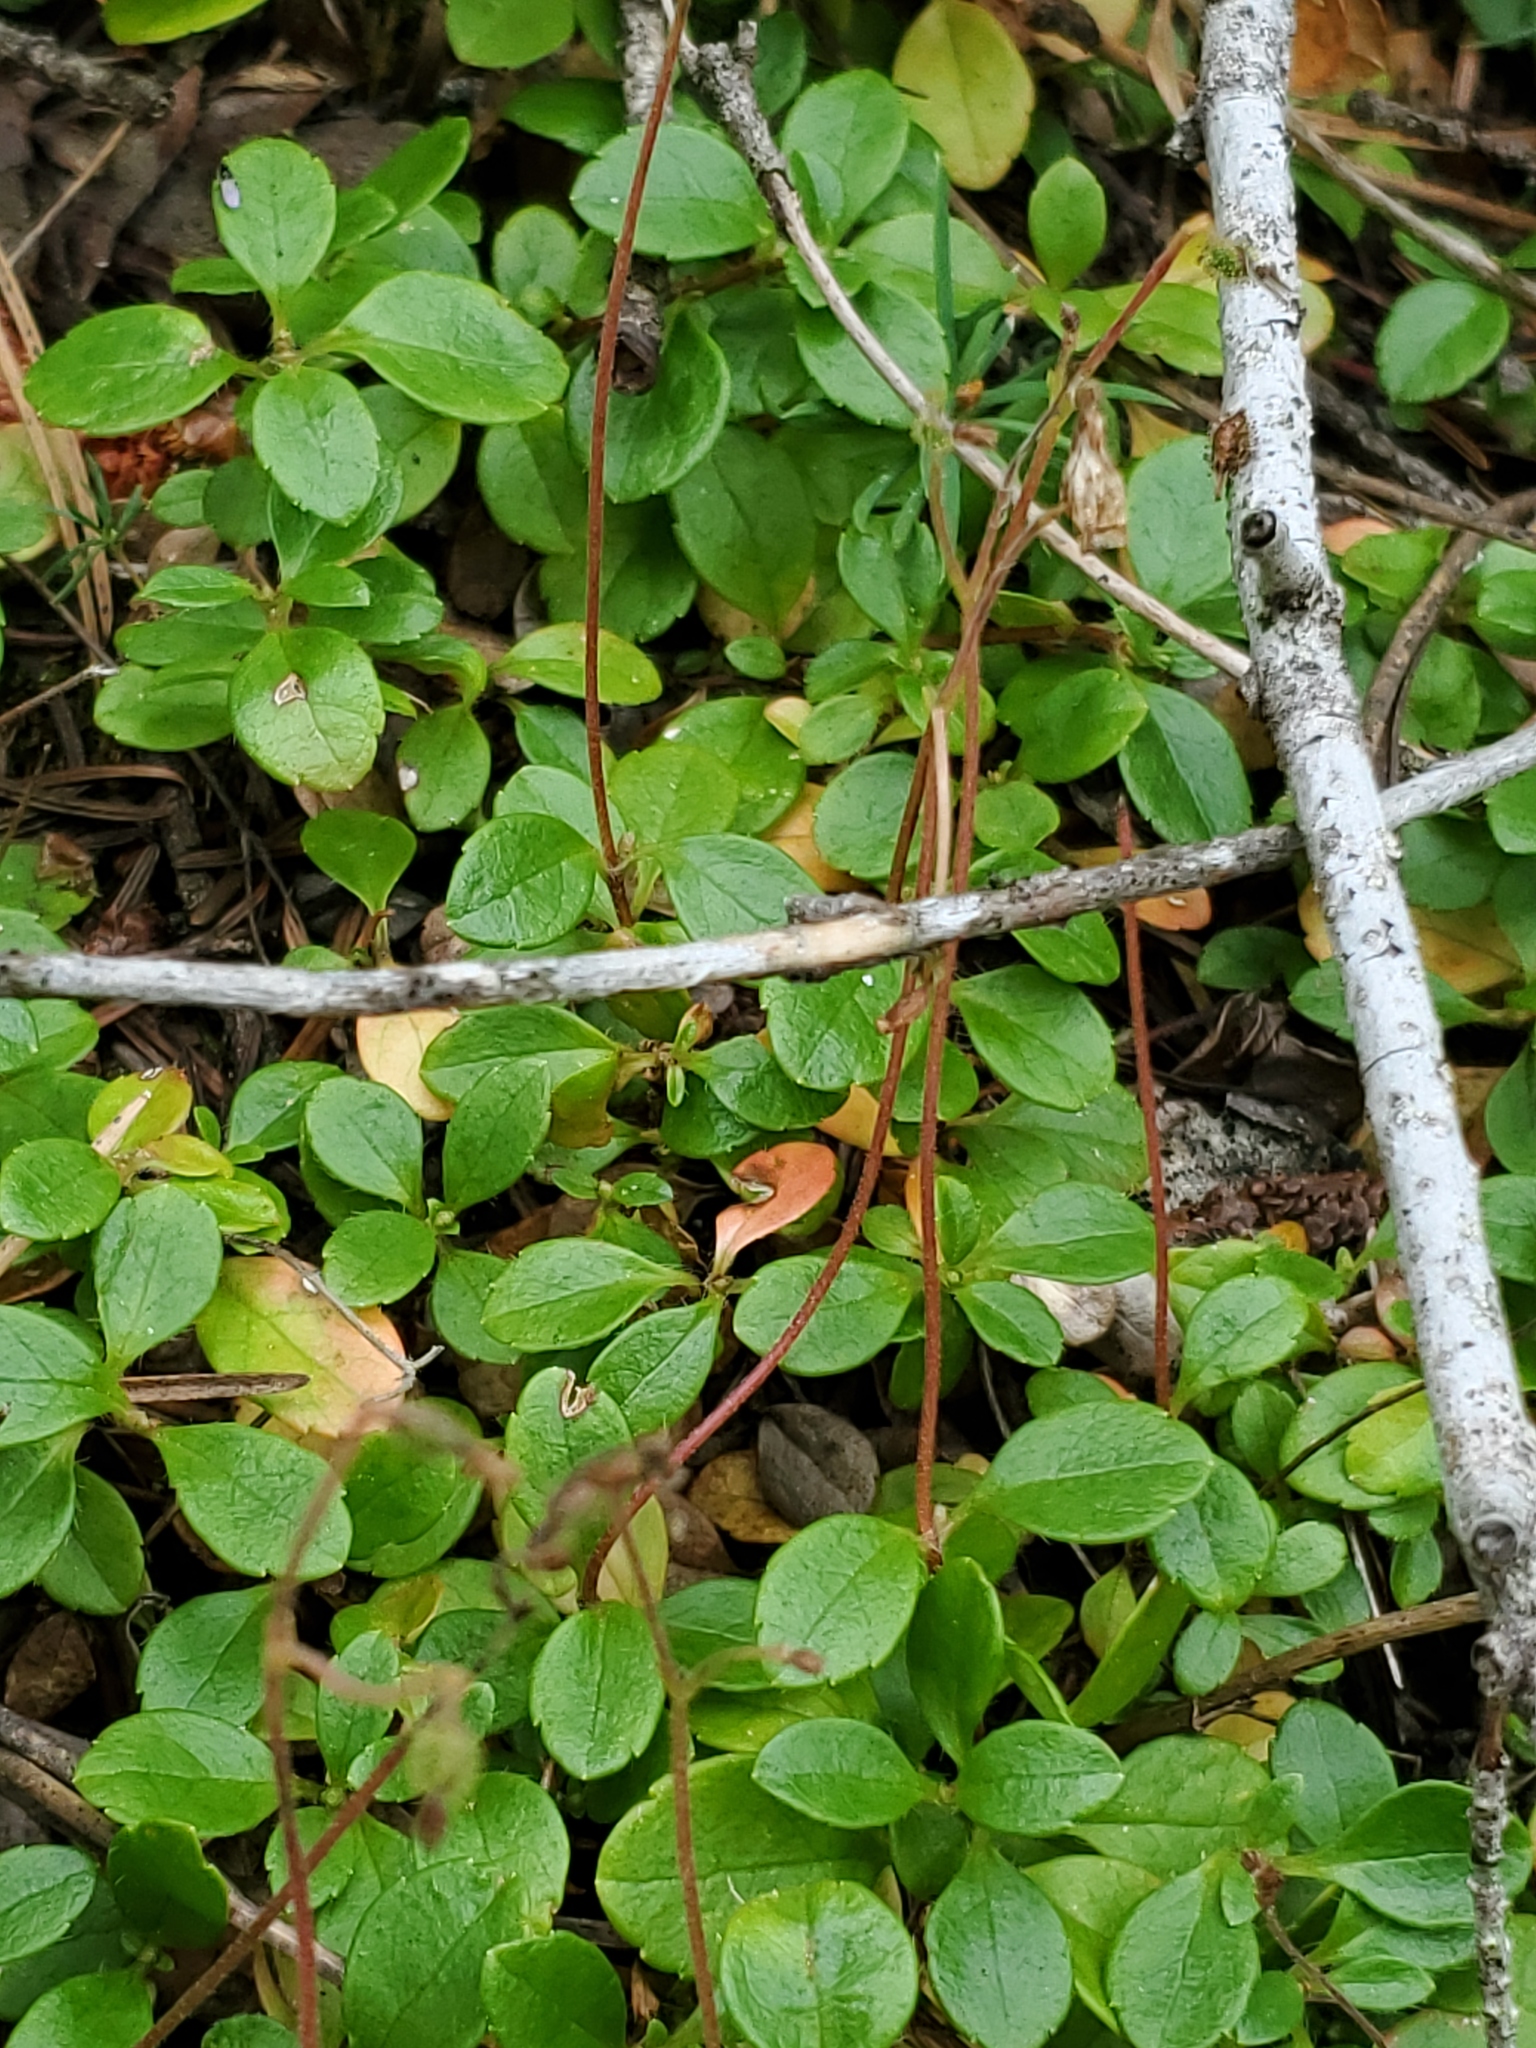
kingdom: Plantae
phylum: Tracheophyta
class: Magnoliopsida
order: Dipsacales
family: Caprifoliaceae
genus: Linnaea
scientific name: Linnaea borealis
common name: Twinflower
